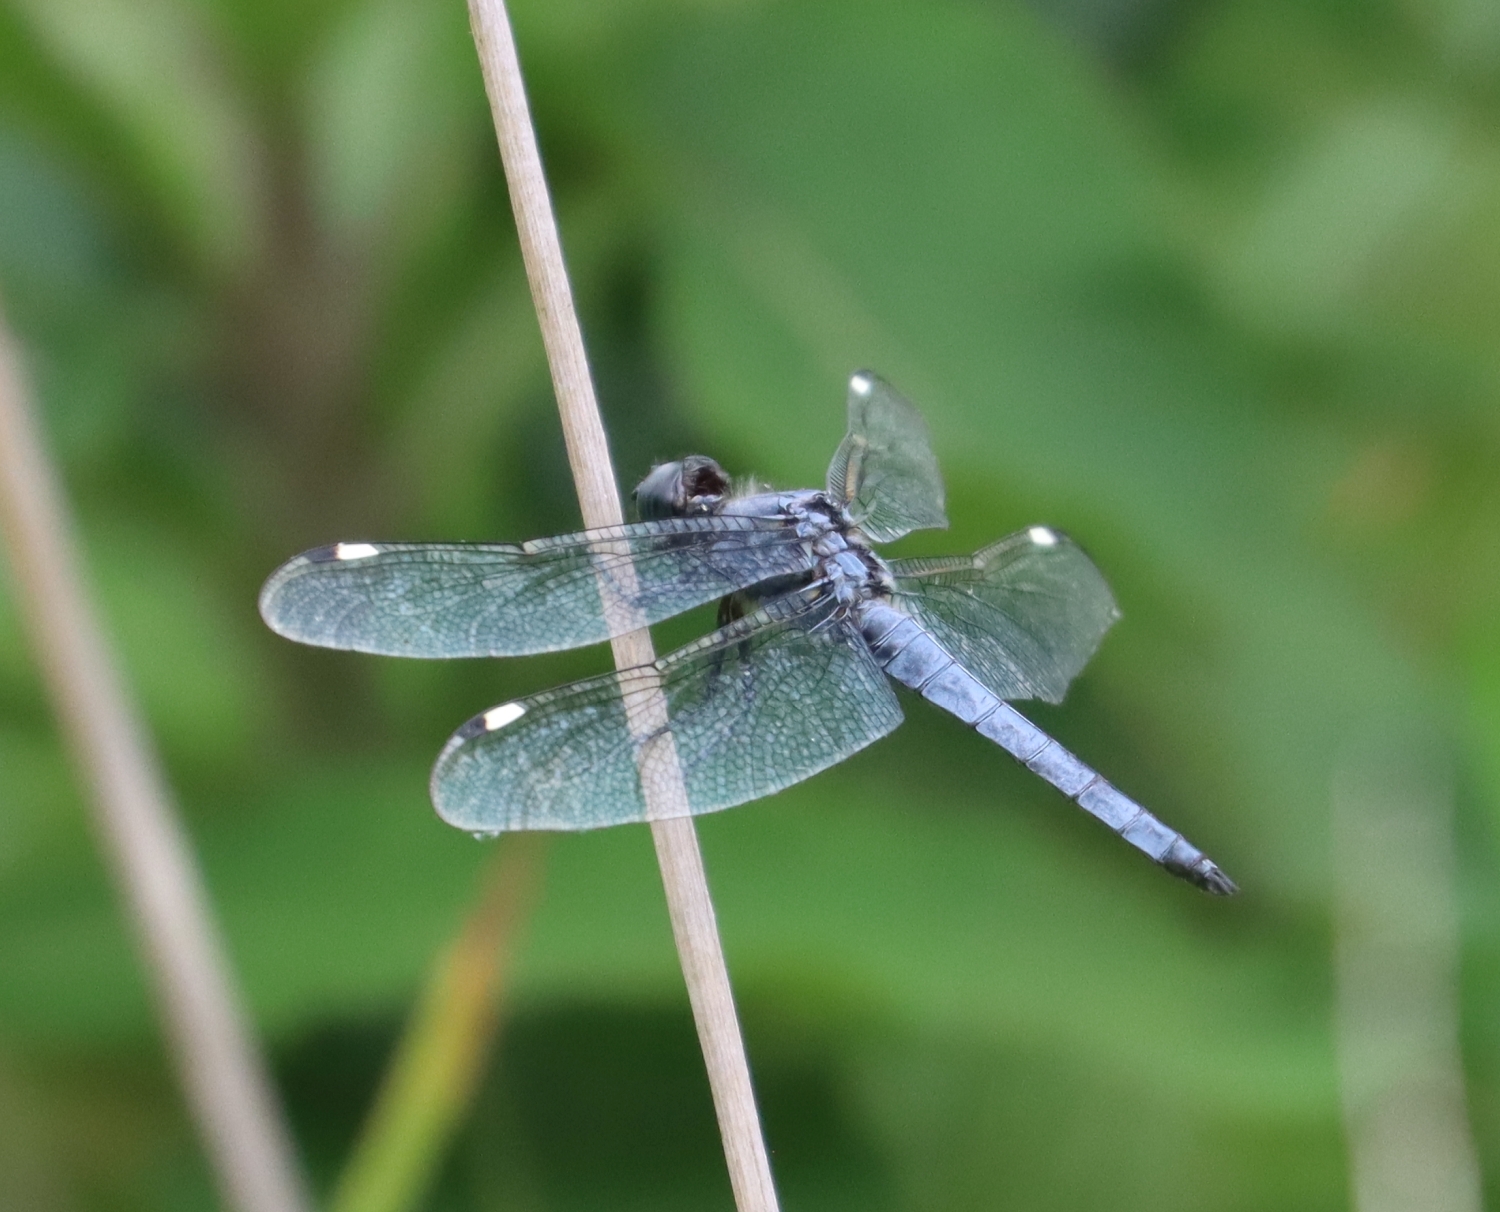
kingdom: Animalia
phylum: Arthropoda
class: Insecta
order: Odonata
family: Libellulidae
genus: Libellula
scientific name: Libellula cyanea
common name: Spangled skimmer
